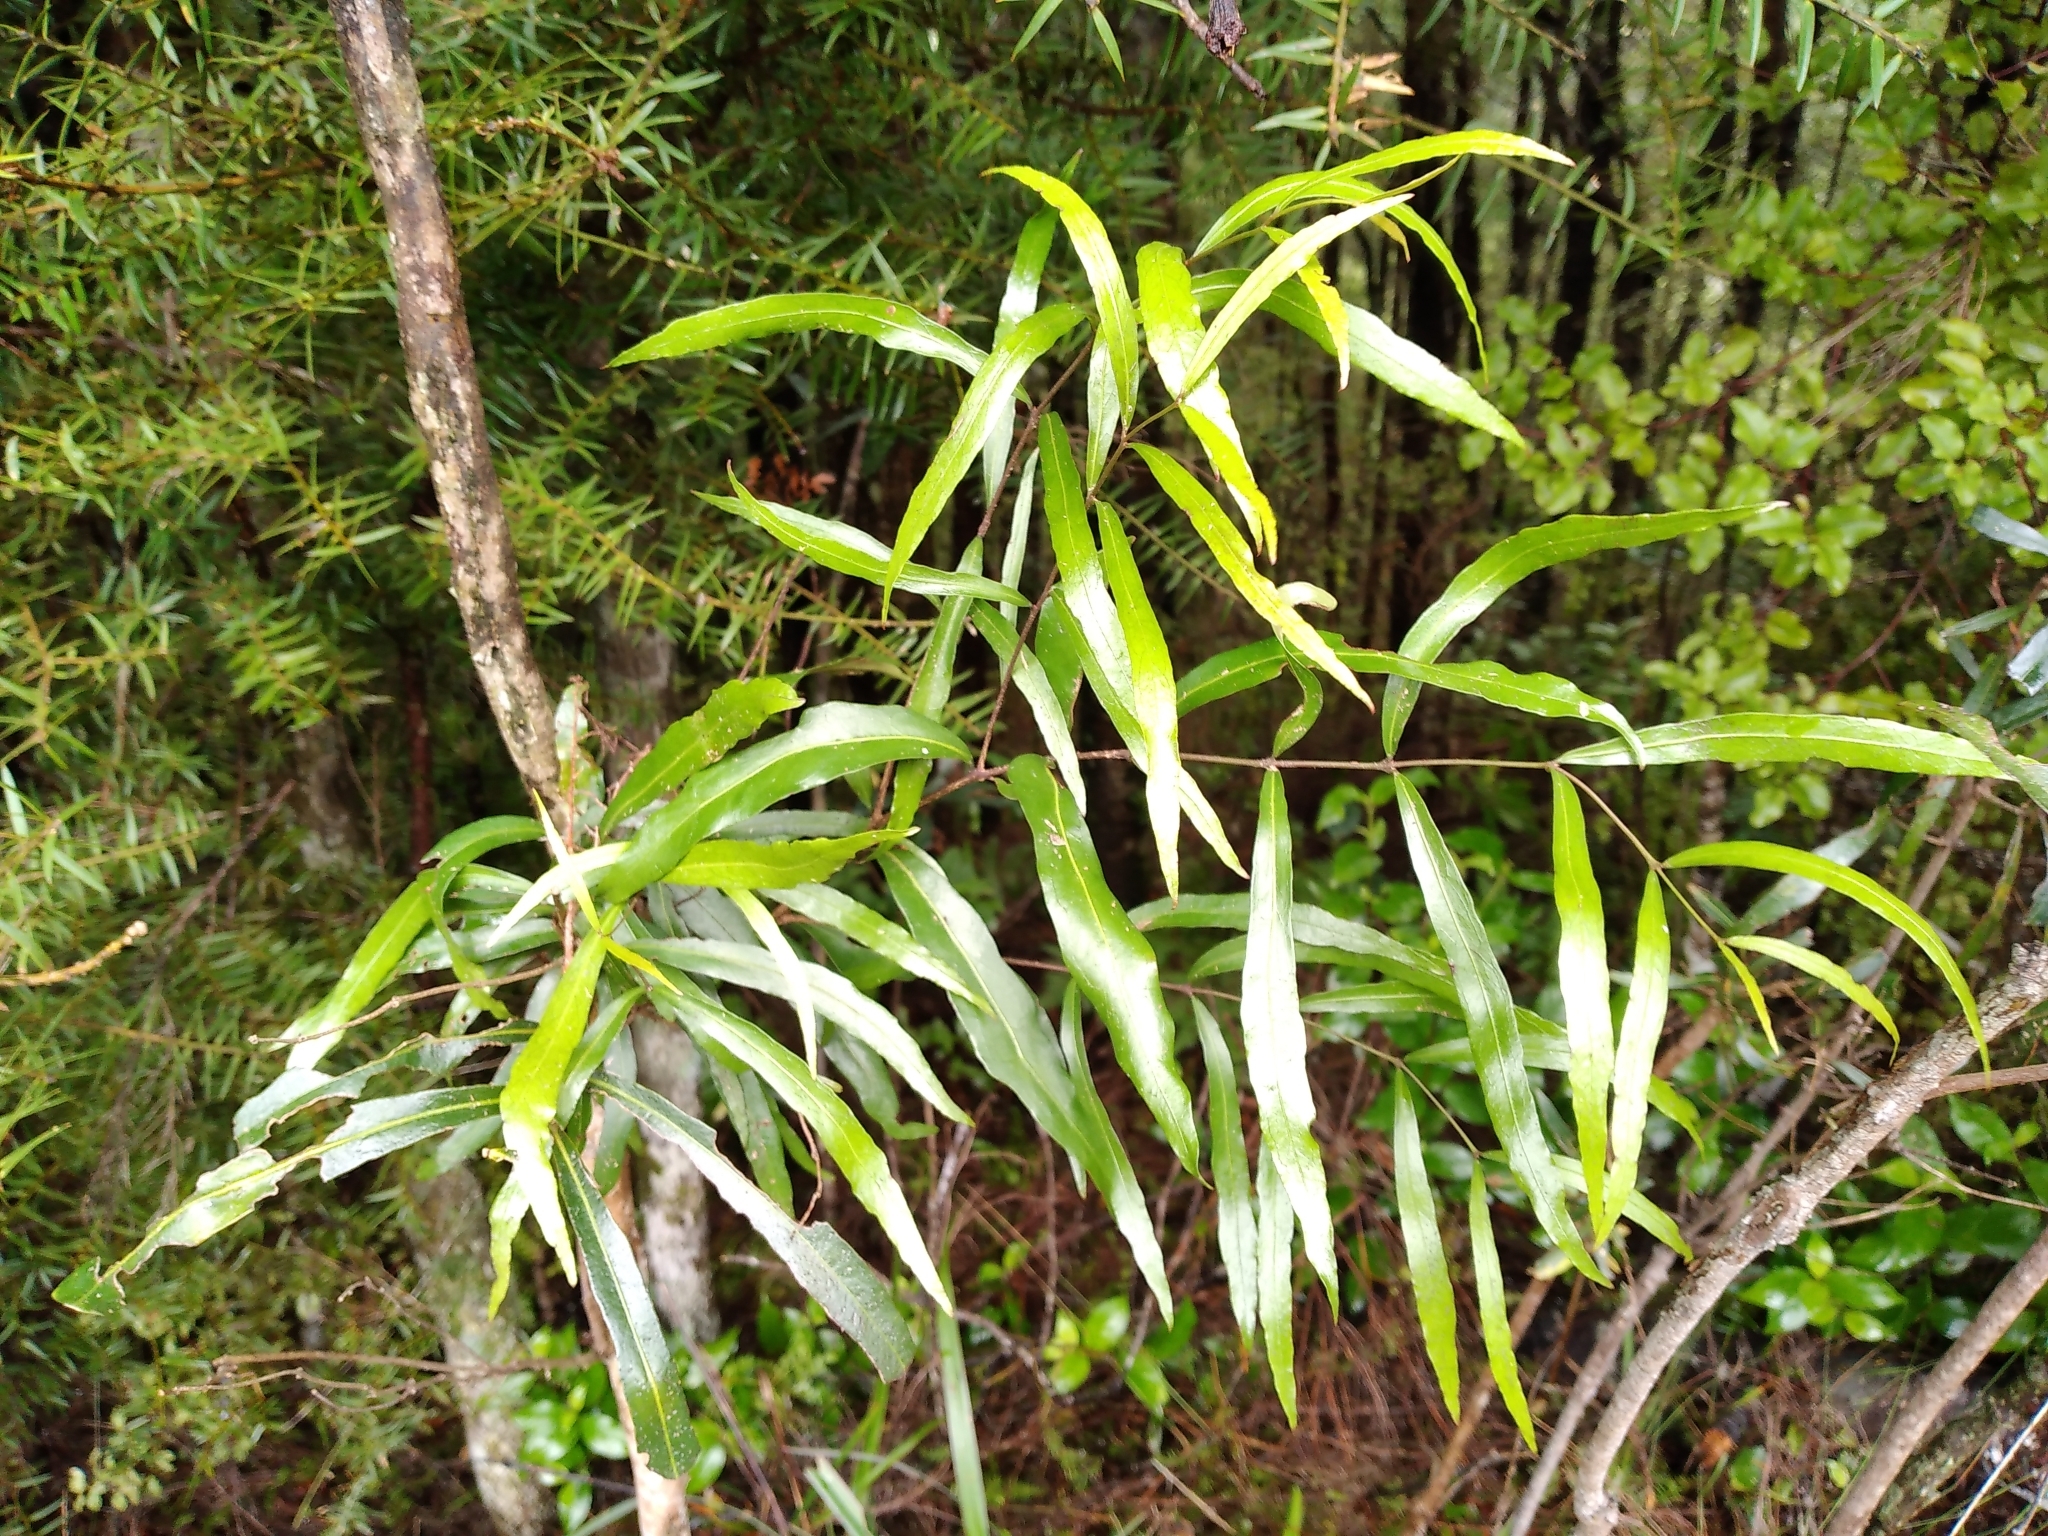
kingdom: Plantae
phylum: Tracheophyta
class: Magnoliopsida
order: Santalales
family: Nanodeaceae
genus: Mida
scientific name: Mida salicifolia
